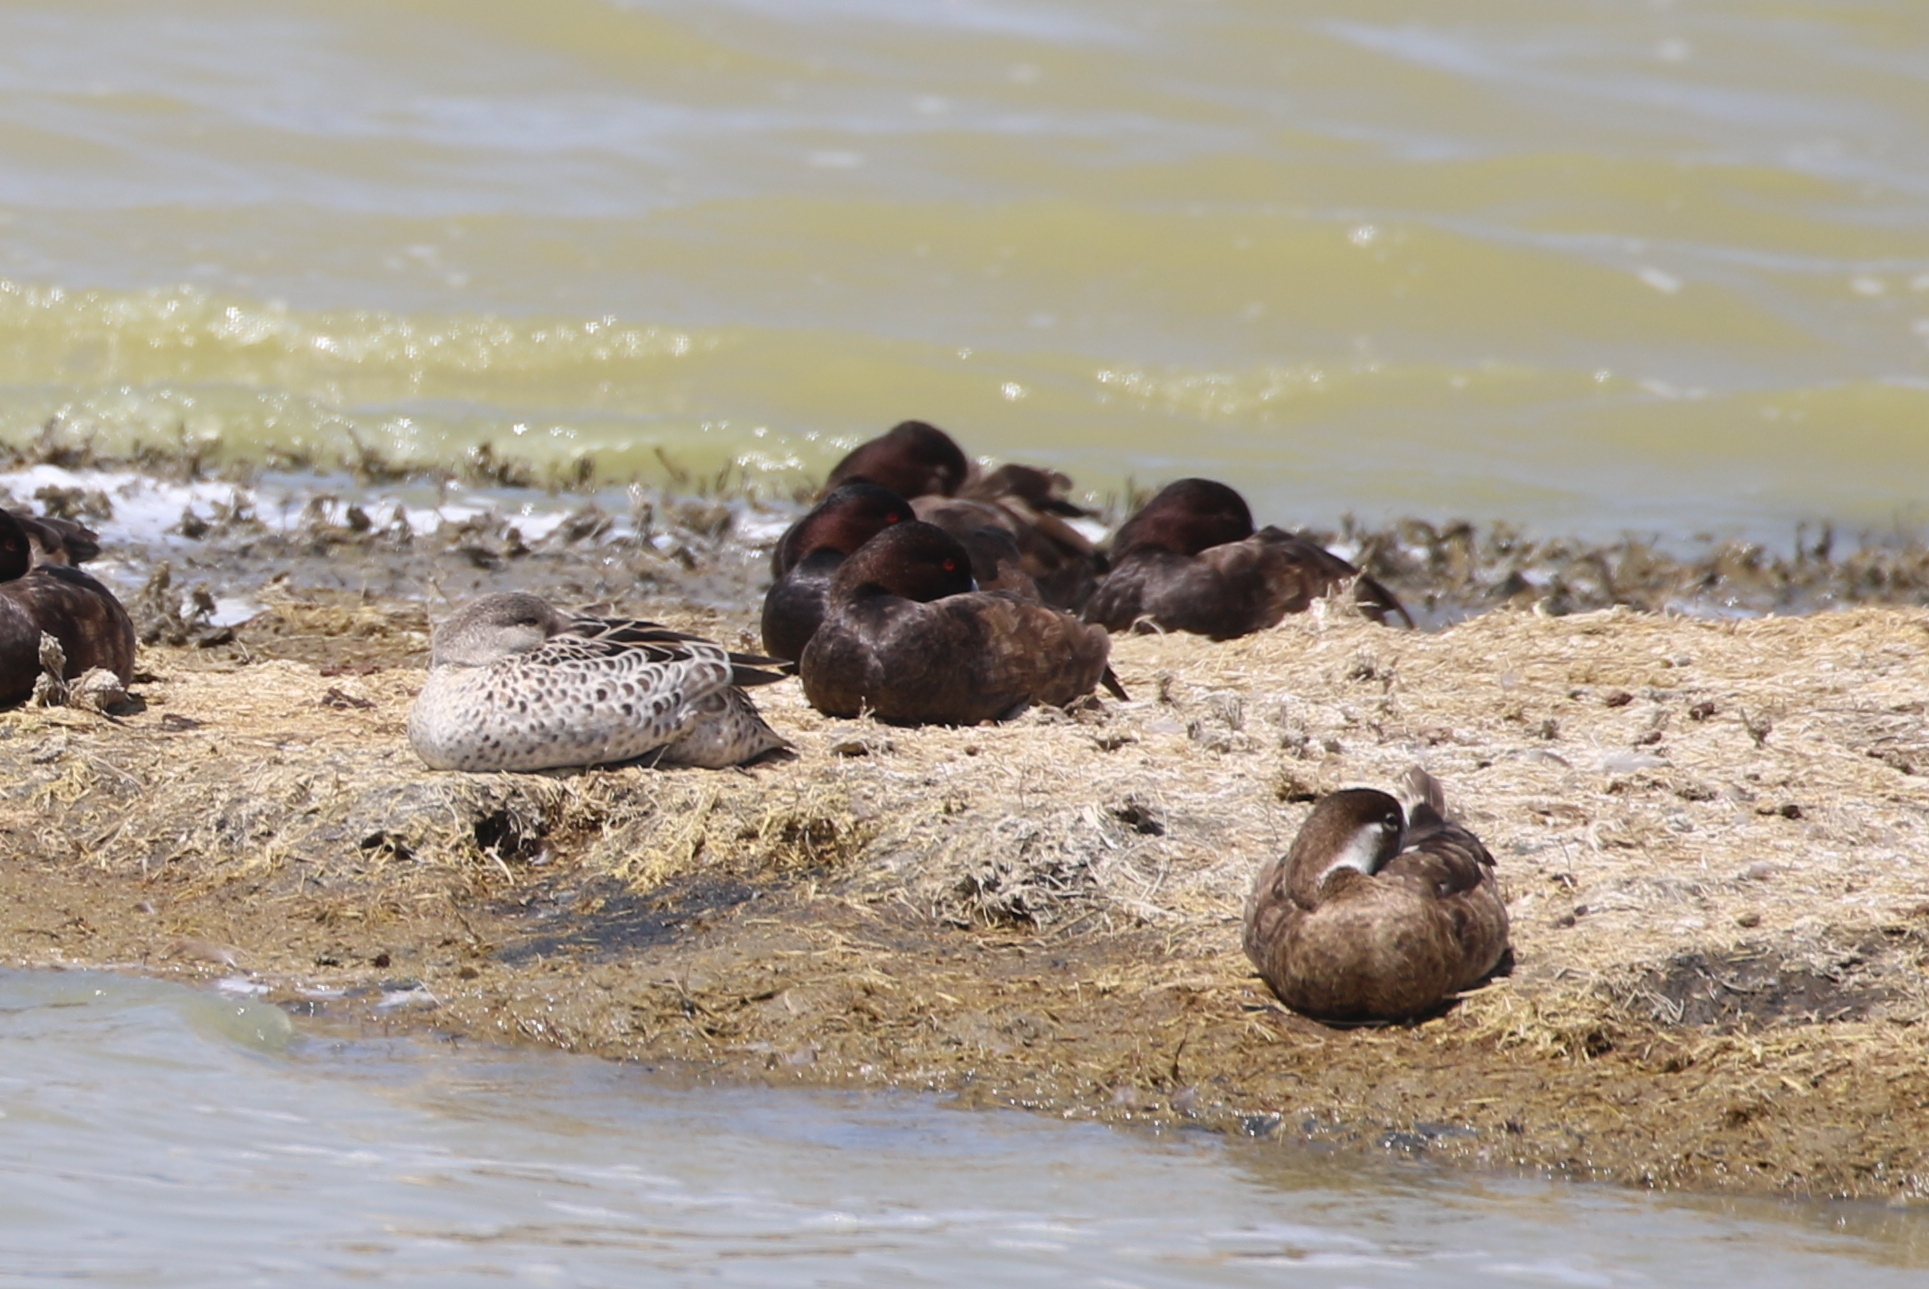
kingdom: Animalia
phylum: Chordata
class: Aves
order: Anseriformes
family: Anatidae
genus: Netta
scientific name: Netta erythrophthalma
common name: Southern pochard
